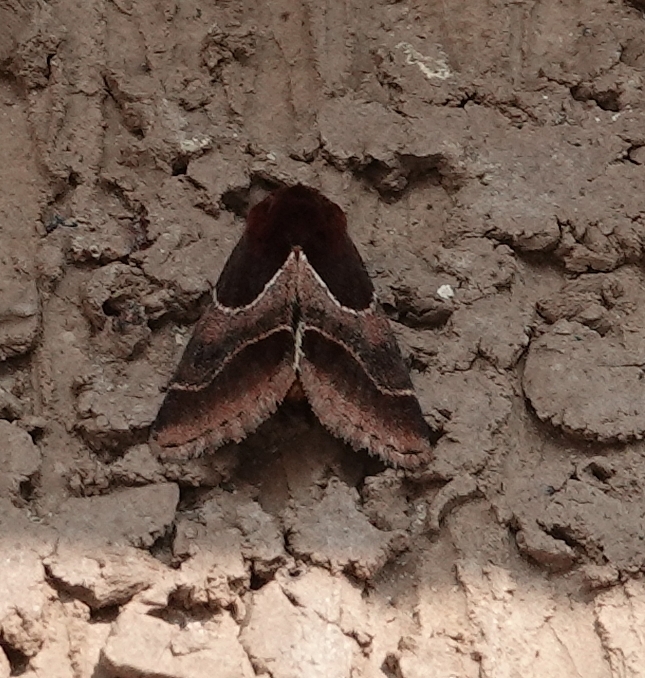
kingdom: Animalia
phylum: Arthropoda
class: Insecta
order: Lepidoptera
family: Noctuidae
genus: Schinia
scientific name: Schinia arcigera
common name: Arcigera flower moth
